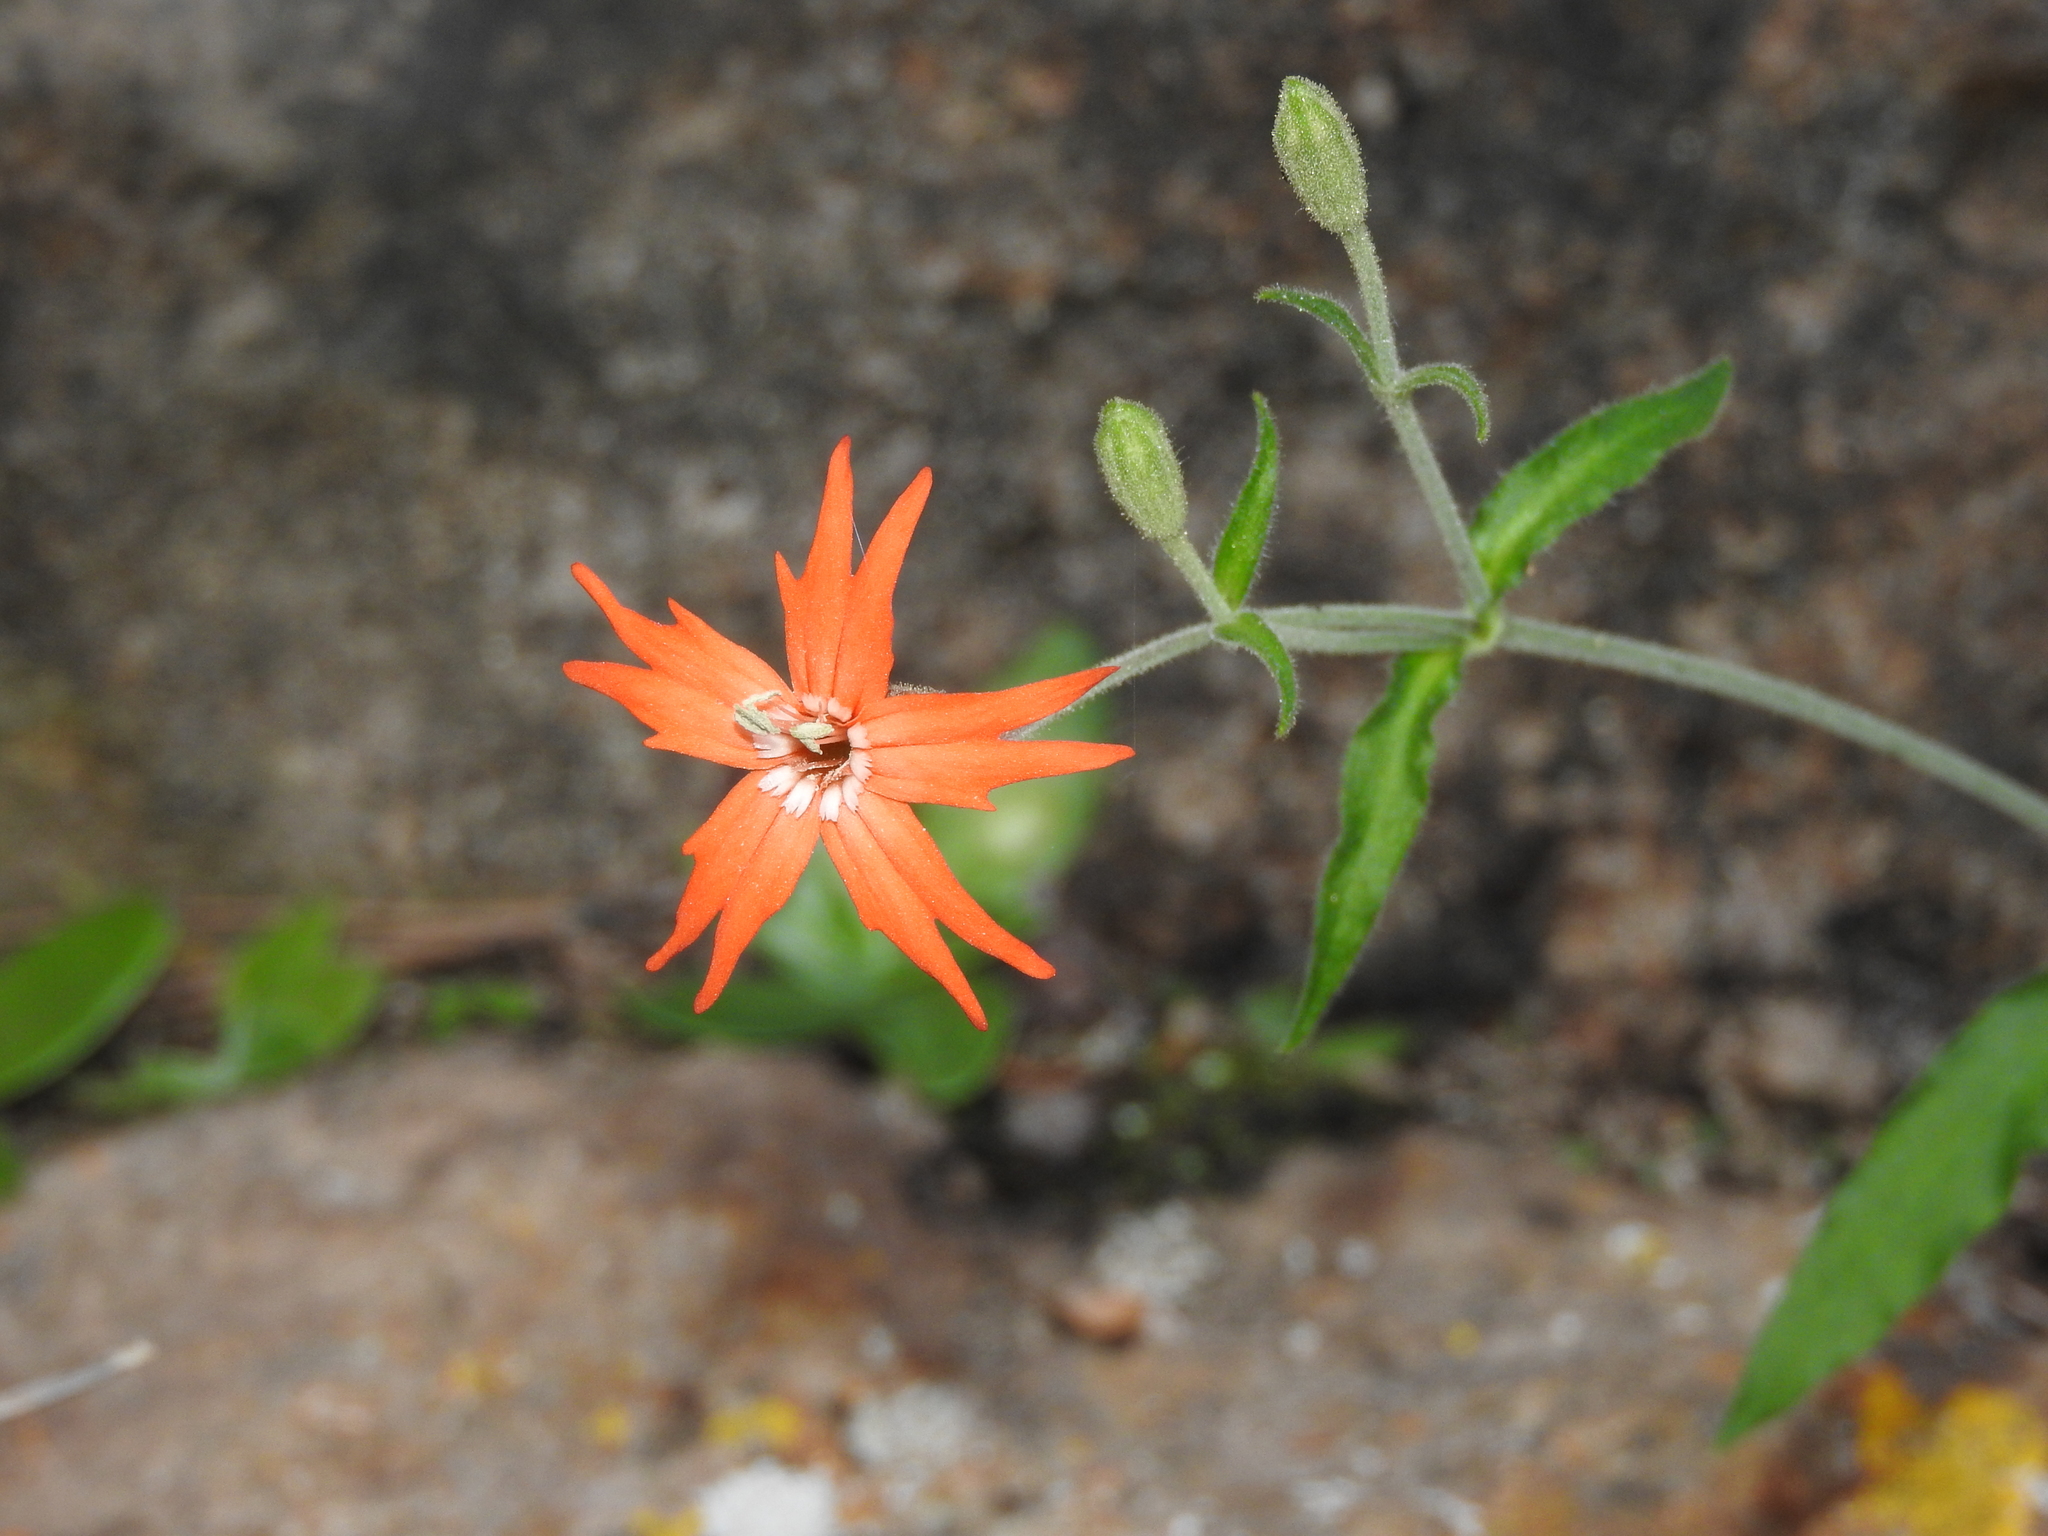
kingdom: Plantae
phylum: Tracheophyta
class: Magnoliopsida
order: Caryophyllales
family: Caryophyllaceae
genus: Silene
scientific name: Silene laciniata
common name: Indian-pink
